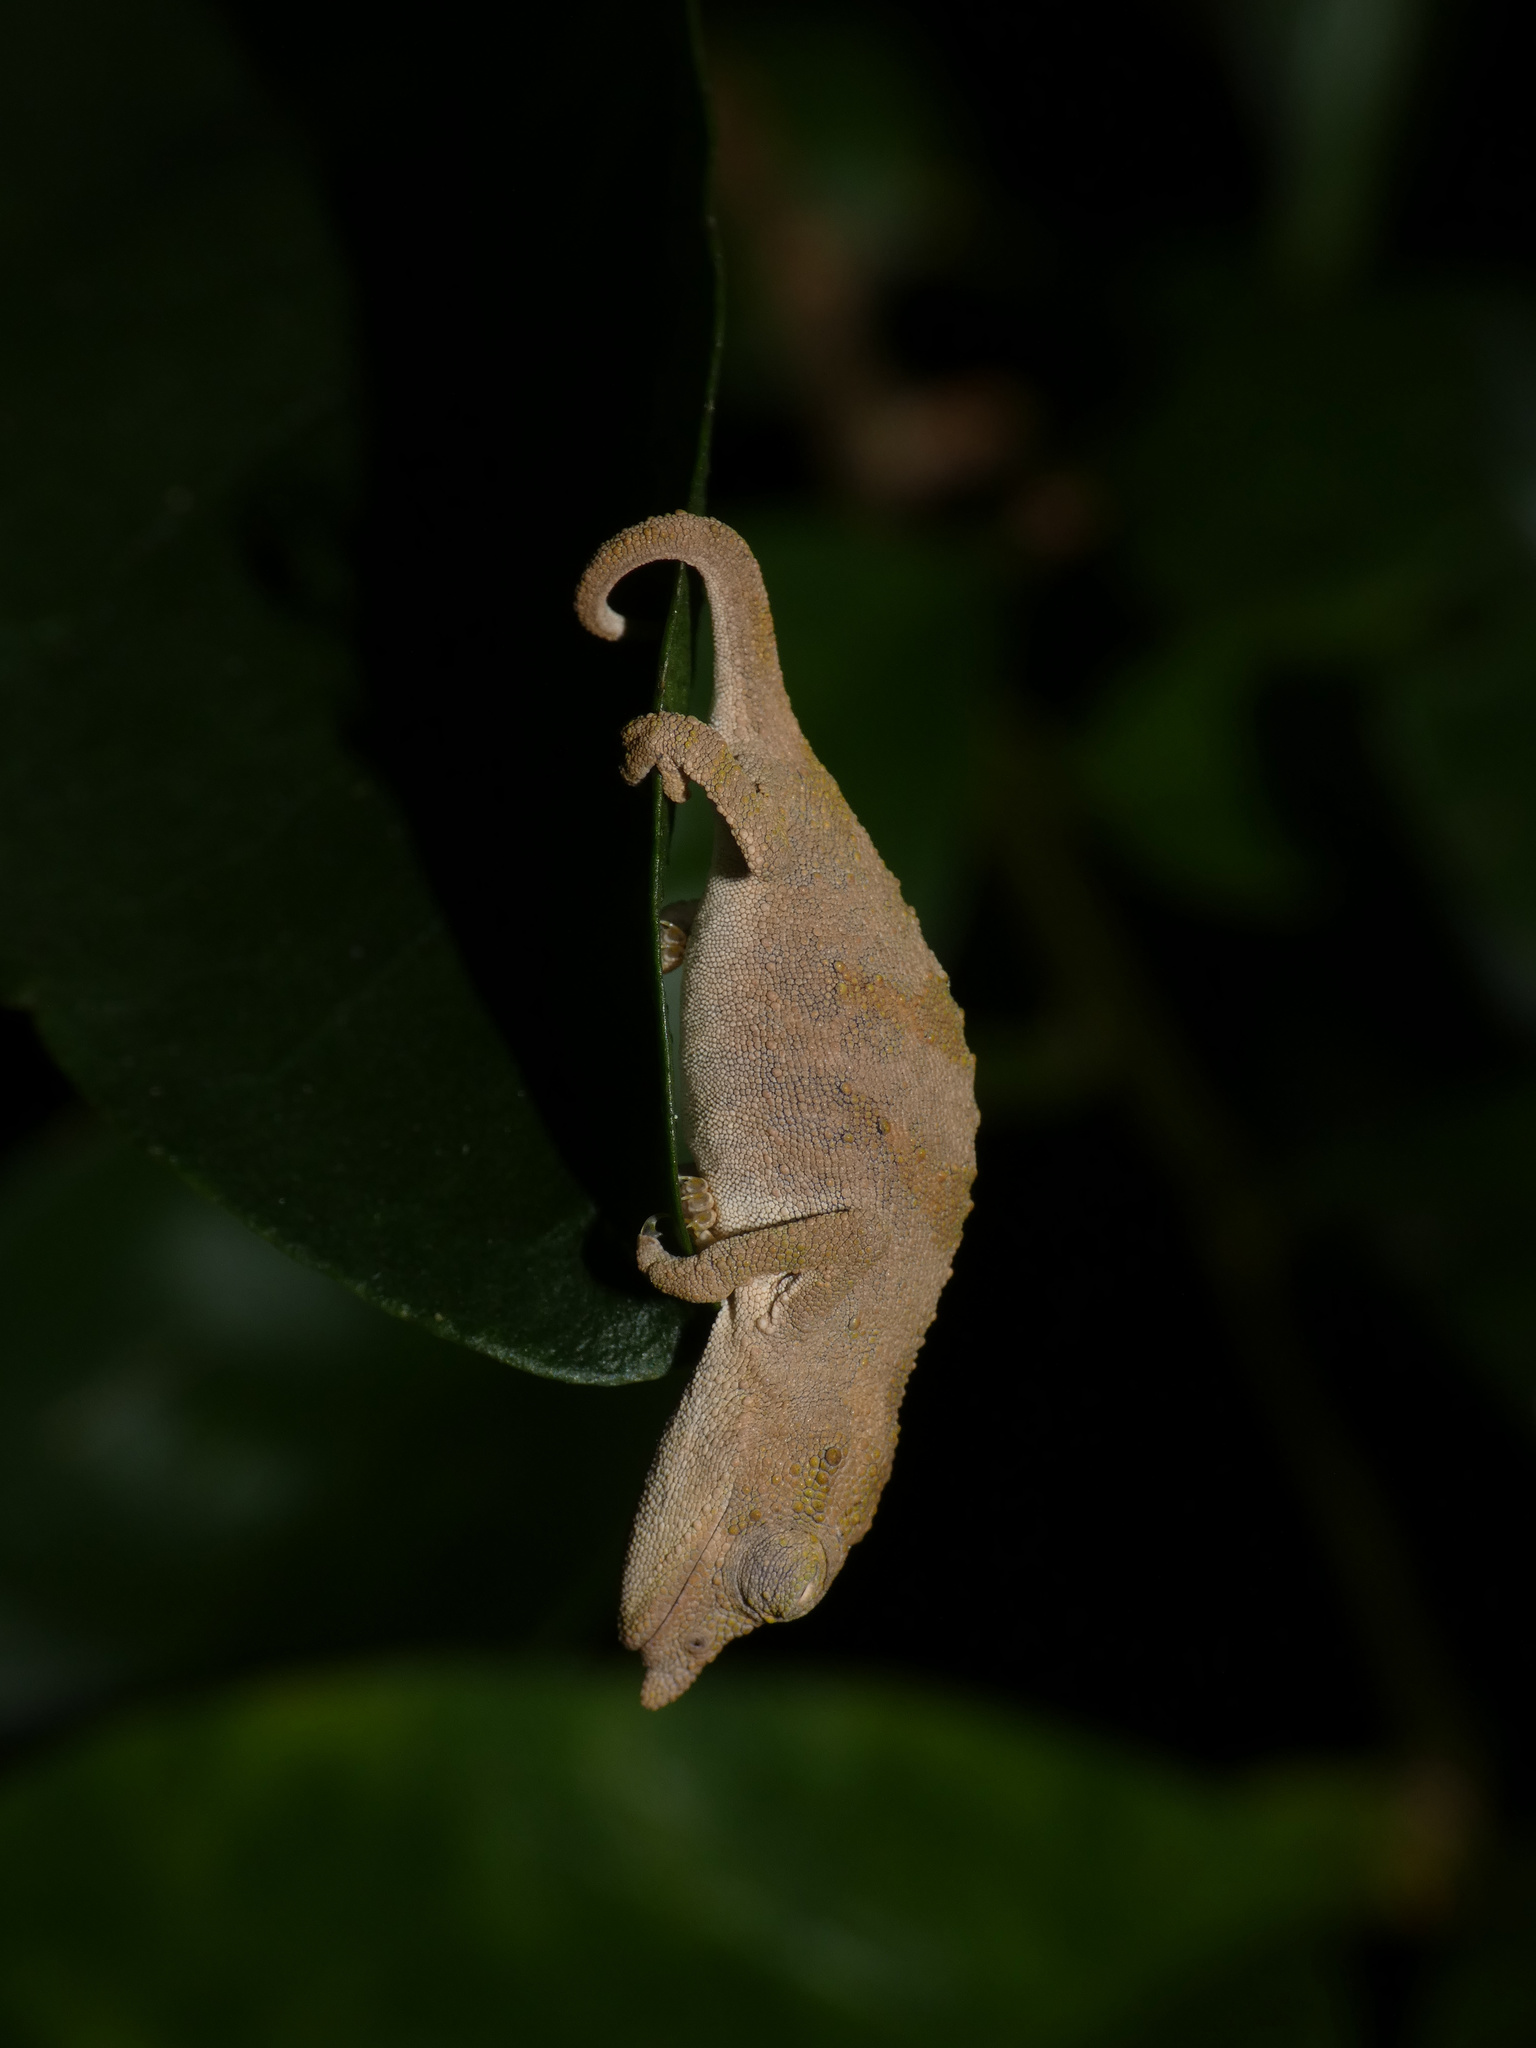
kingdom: Animalia
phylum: Chordata
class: Squamata
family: Chamaeleonidae
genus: Rhampholeon
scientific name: Rhampholeon marshalli
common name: Marshall's african leaf chameleon
